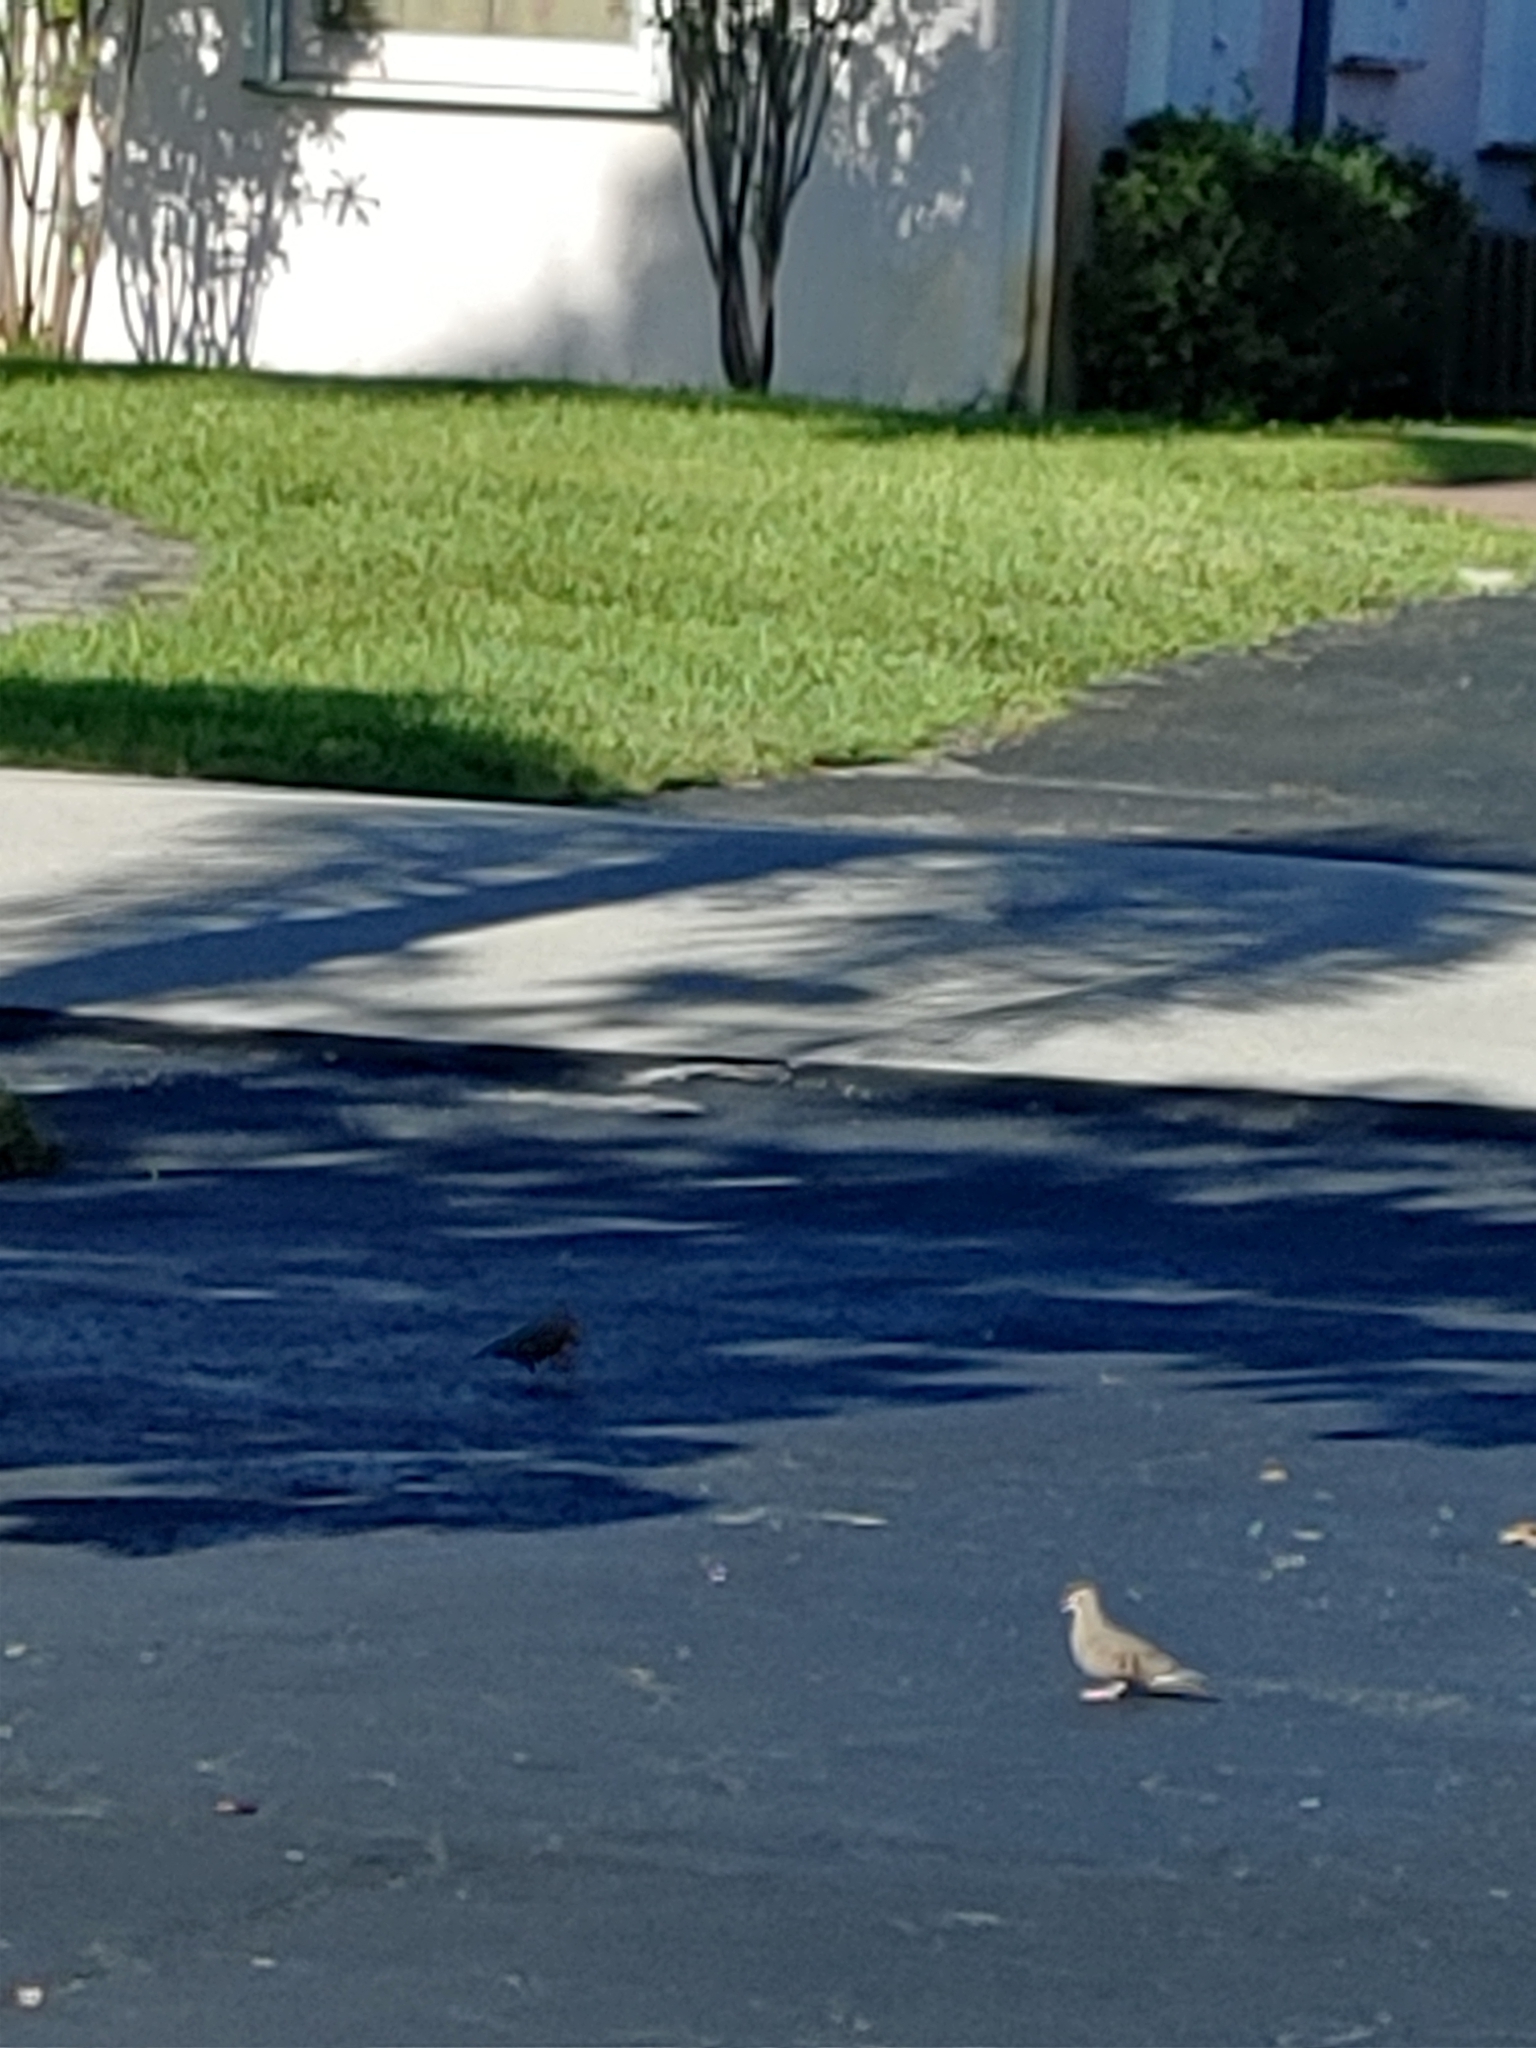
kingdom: Animalia
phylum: Chordata
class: Aves
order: Columbiformes
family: Columbidae
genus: Columbina
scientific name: Columbina passerina
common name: Common ground-dove
